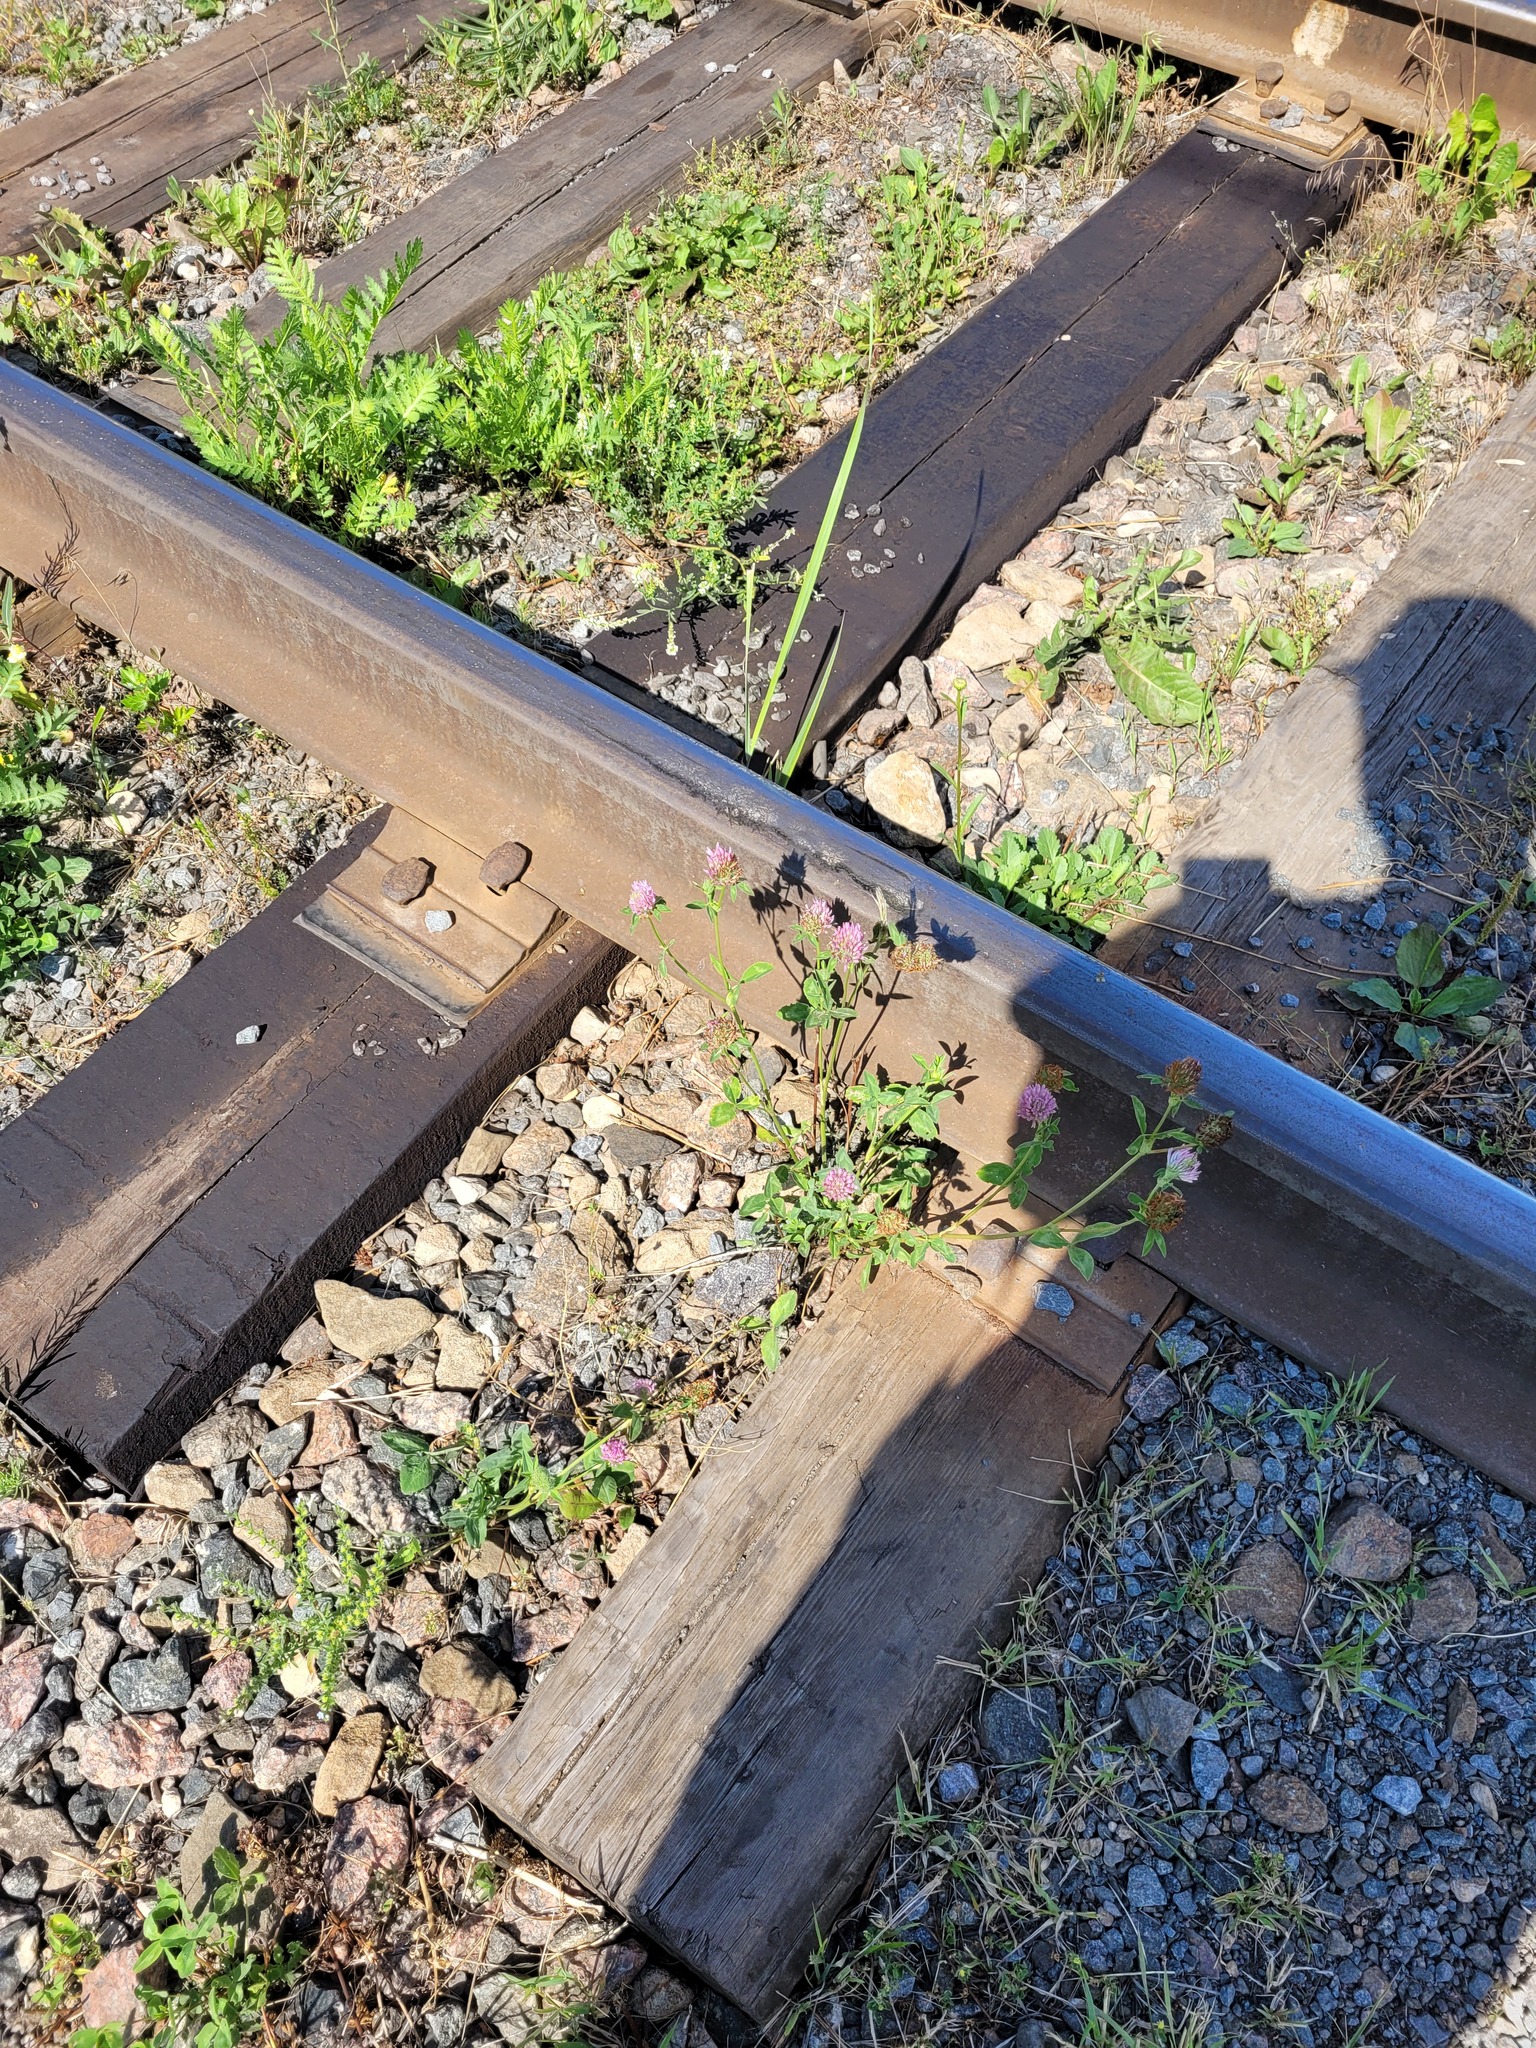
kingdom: Plantae
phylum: Tracheophyta
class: Magnoliopsida
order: Fabales
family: Fabaceae
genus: Trifolium
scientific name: Trifolium pratense
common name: Red clover
